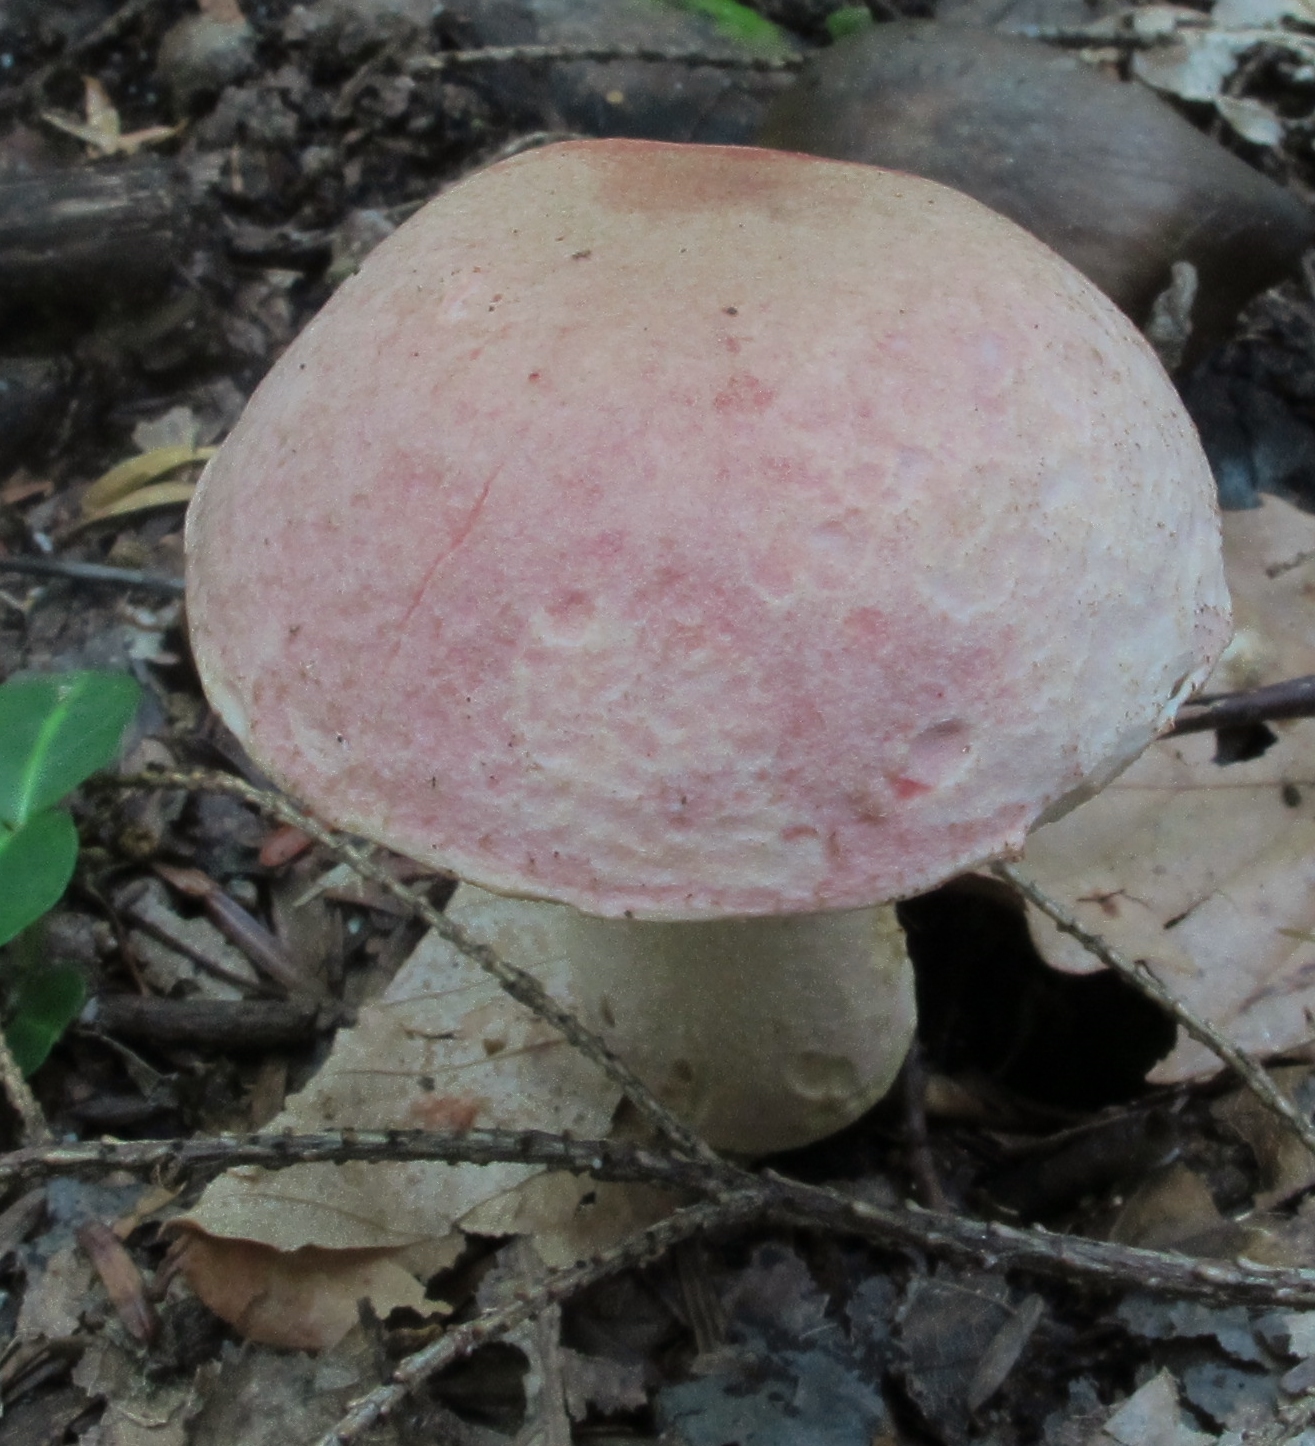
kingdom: Fungi
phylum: Basidiomycota
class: Agaricomycetes
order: Boletales
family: Boletaceae
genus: Harrya
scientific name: Harrya chromipes
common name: Chrome-footed bolete
